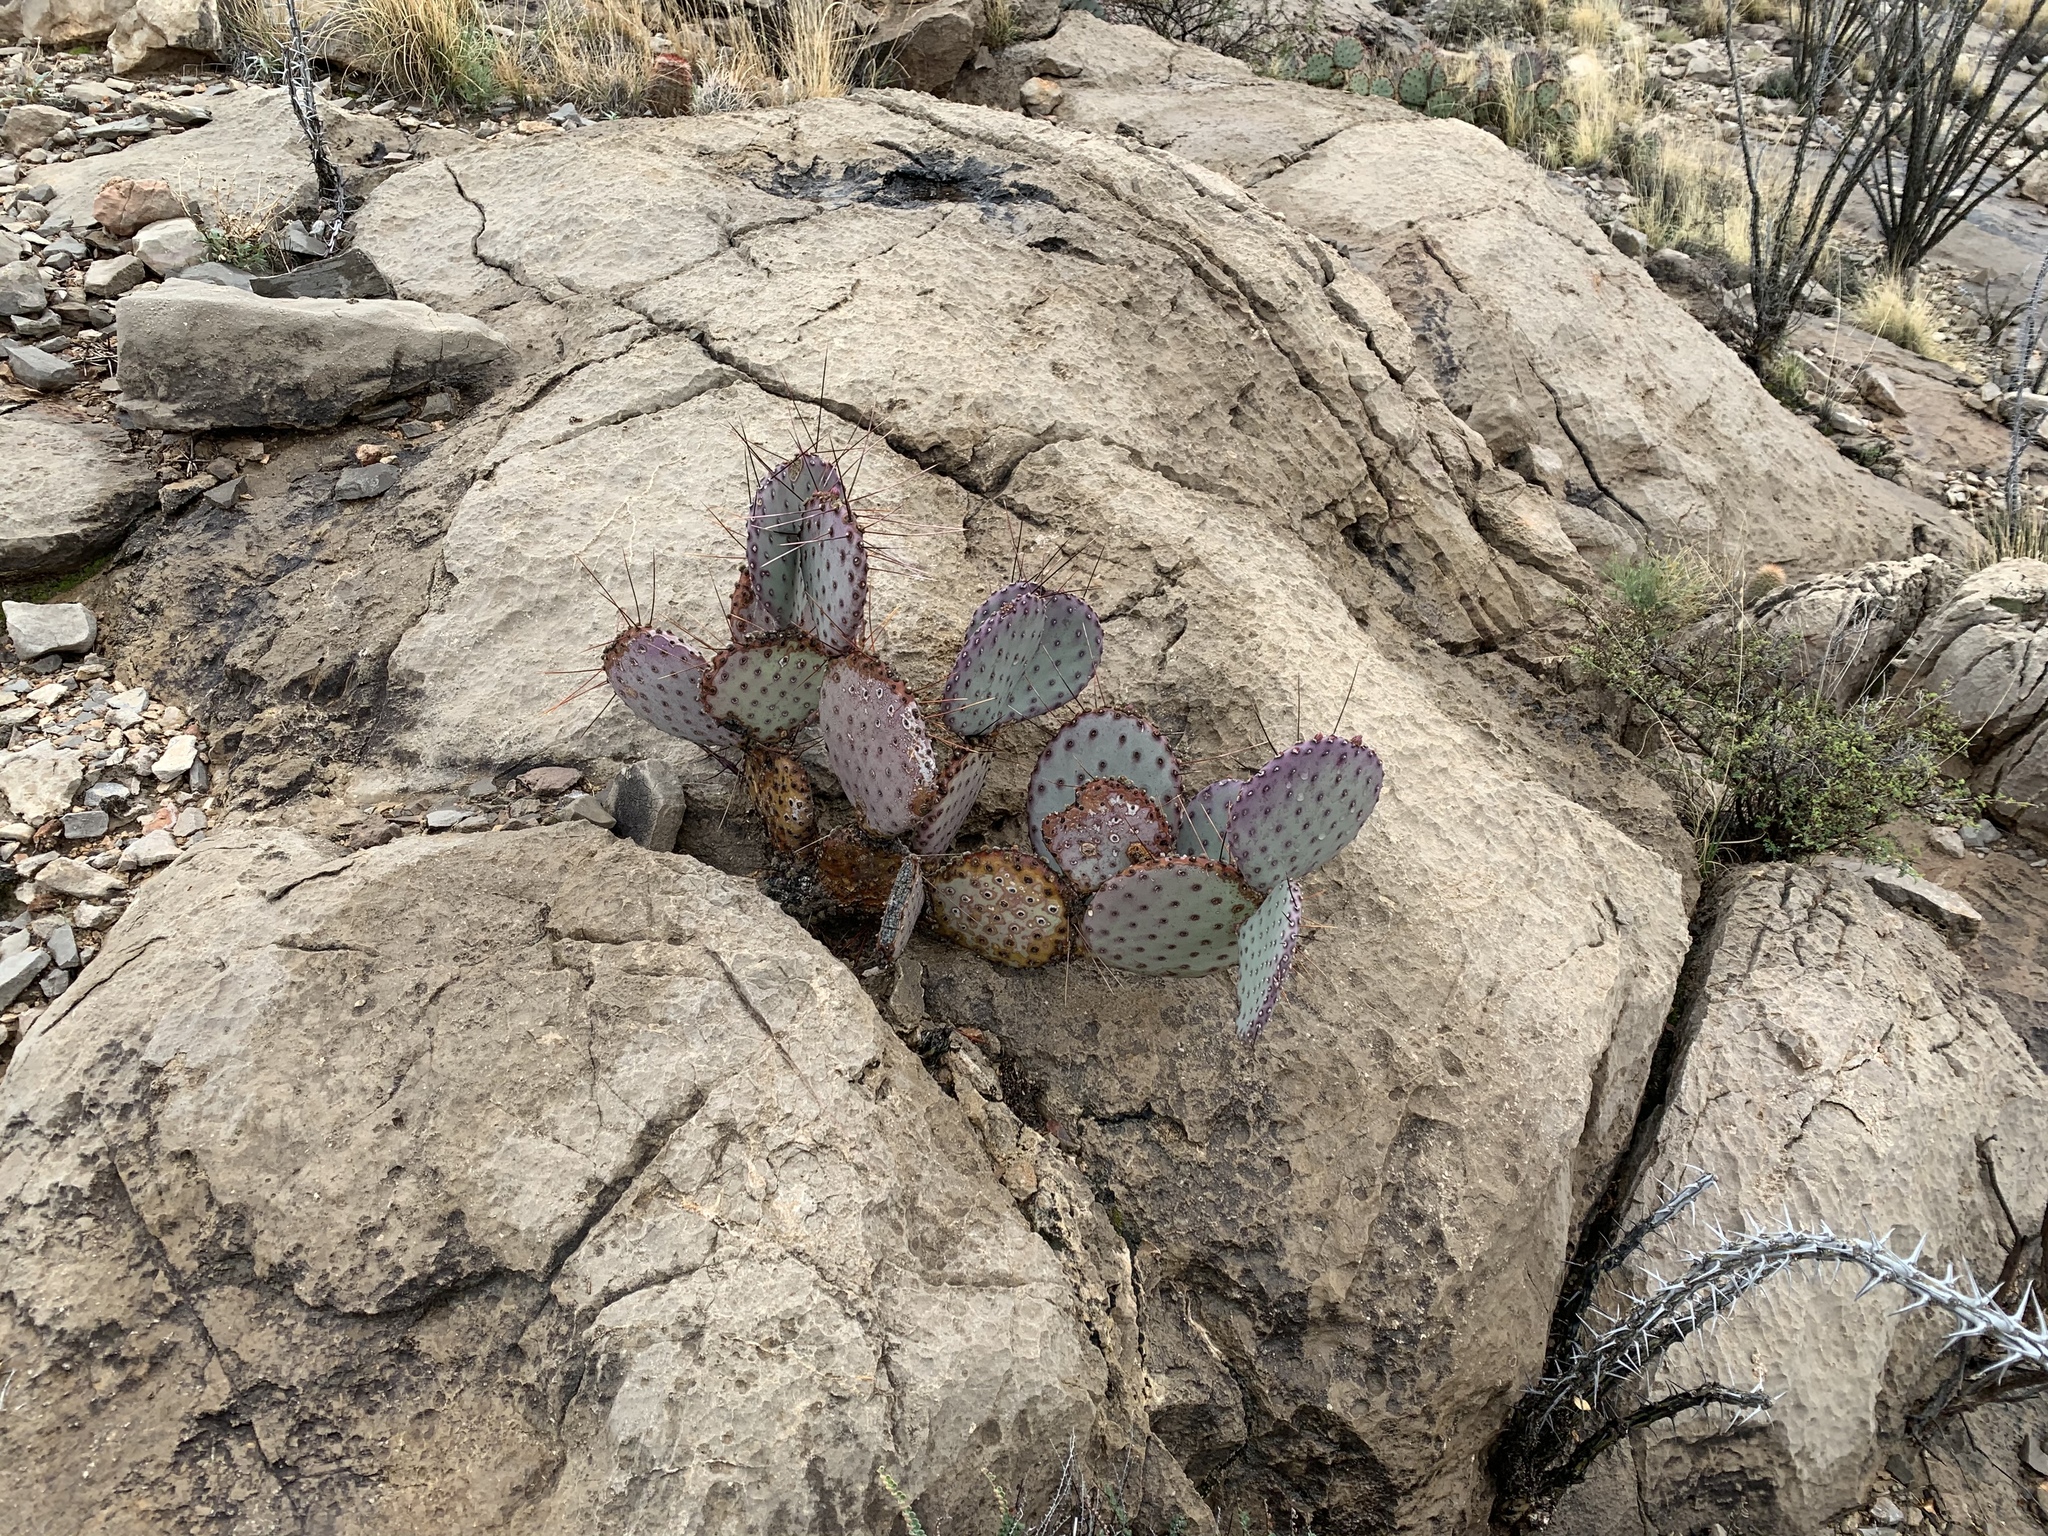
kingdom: Plantae
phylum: Tracheophyta
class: Magnoliopsida
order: Caryophyllales
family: Cactaceae
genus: Opuntia
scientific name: Opuntia macrocentra
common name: Purple prickly-pear
